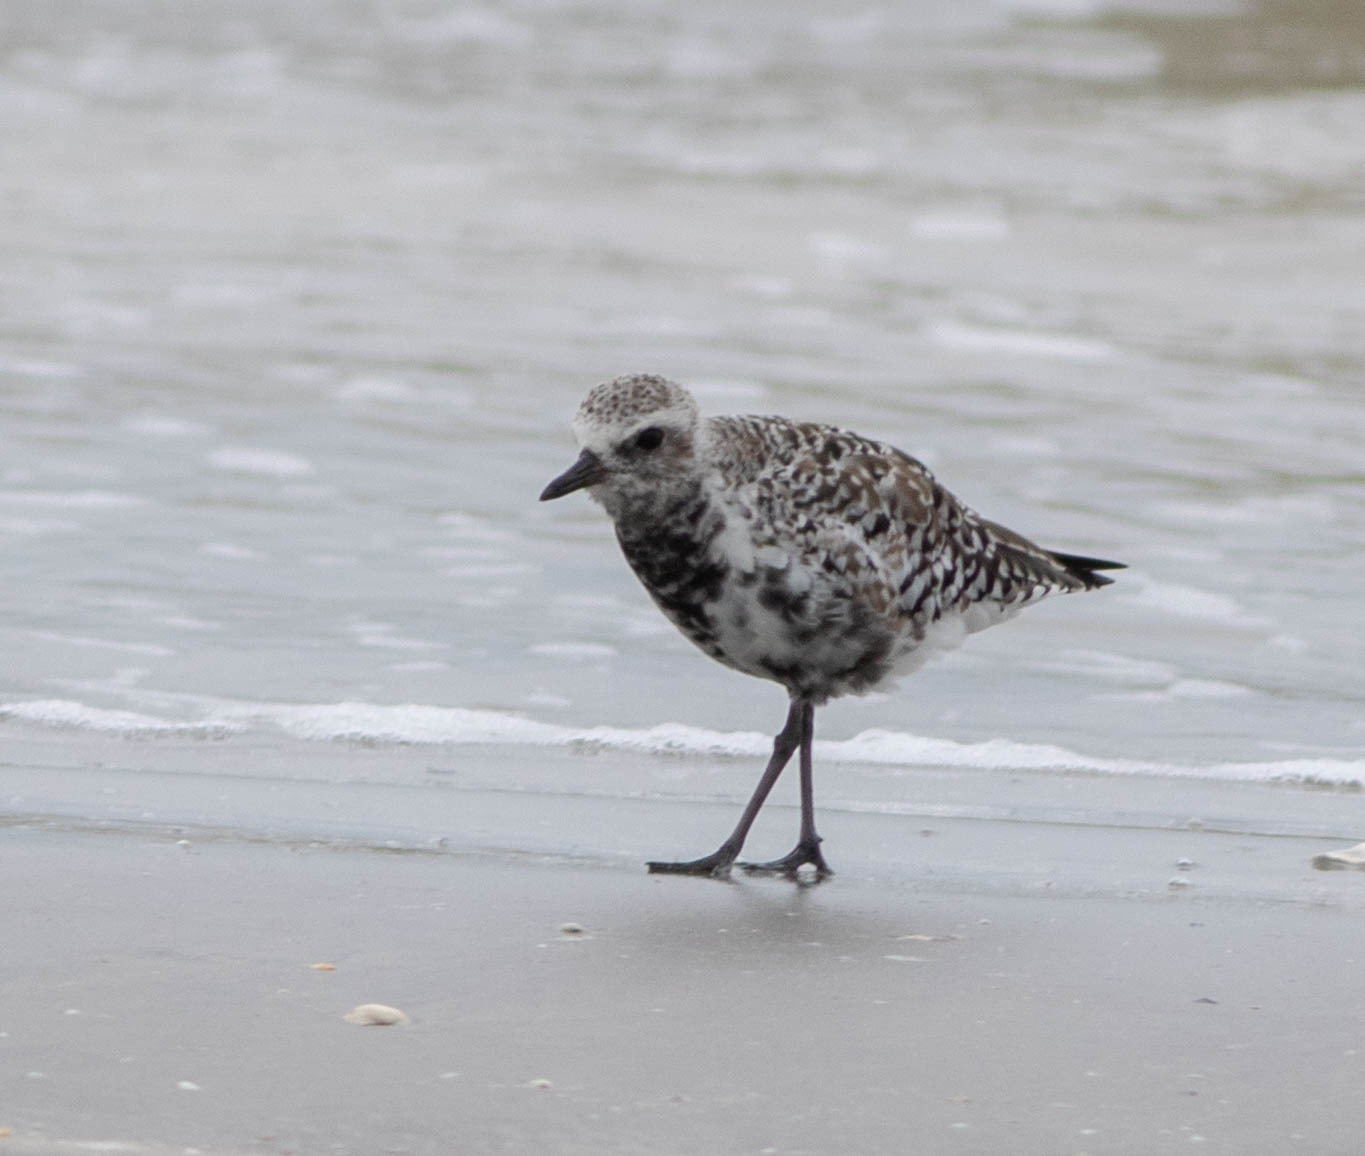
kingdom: Animalia
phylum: Chordata
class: Aves
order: Charadriiformes
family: Charadriidae
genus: Pluvialis
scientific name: Pluvialis squatarola
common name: Grey plover
